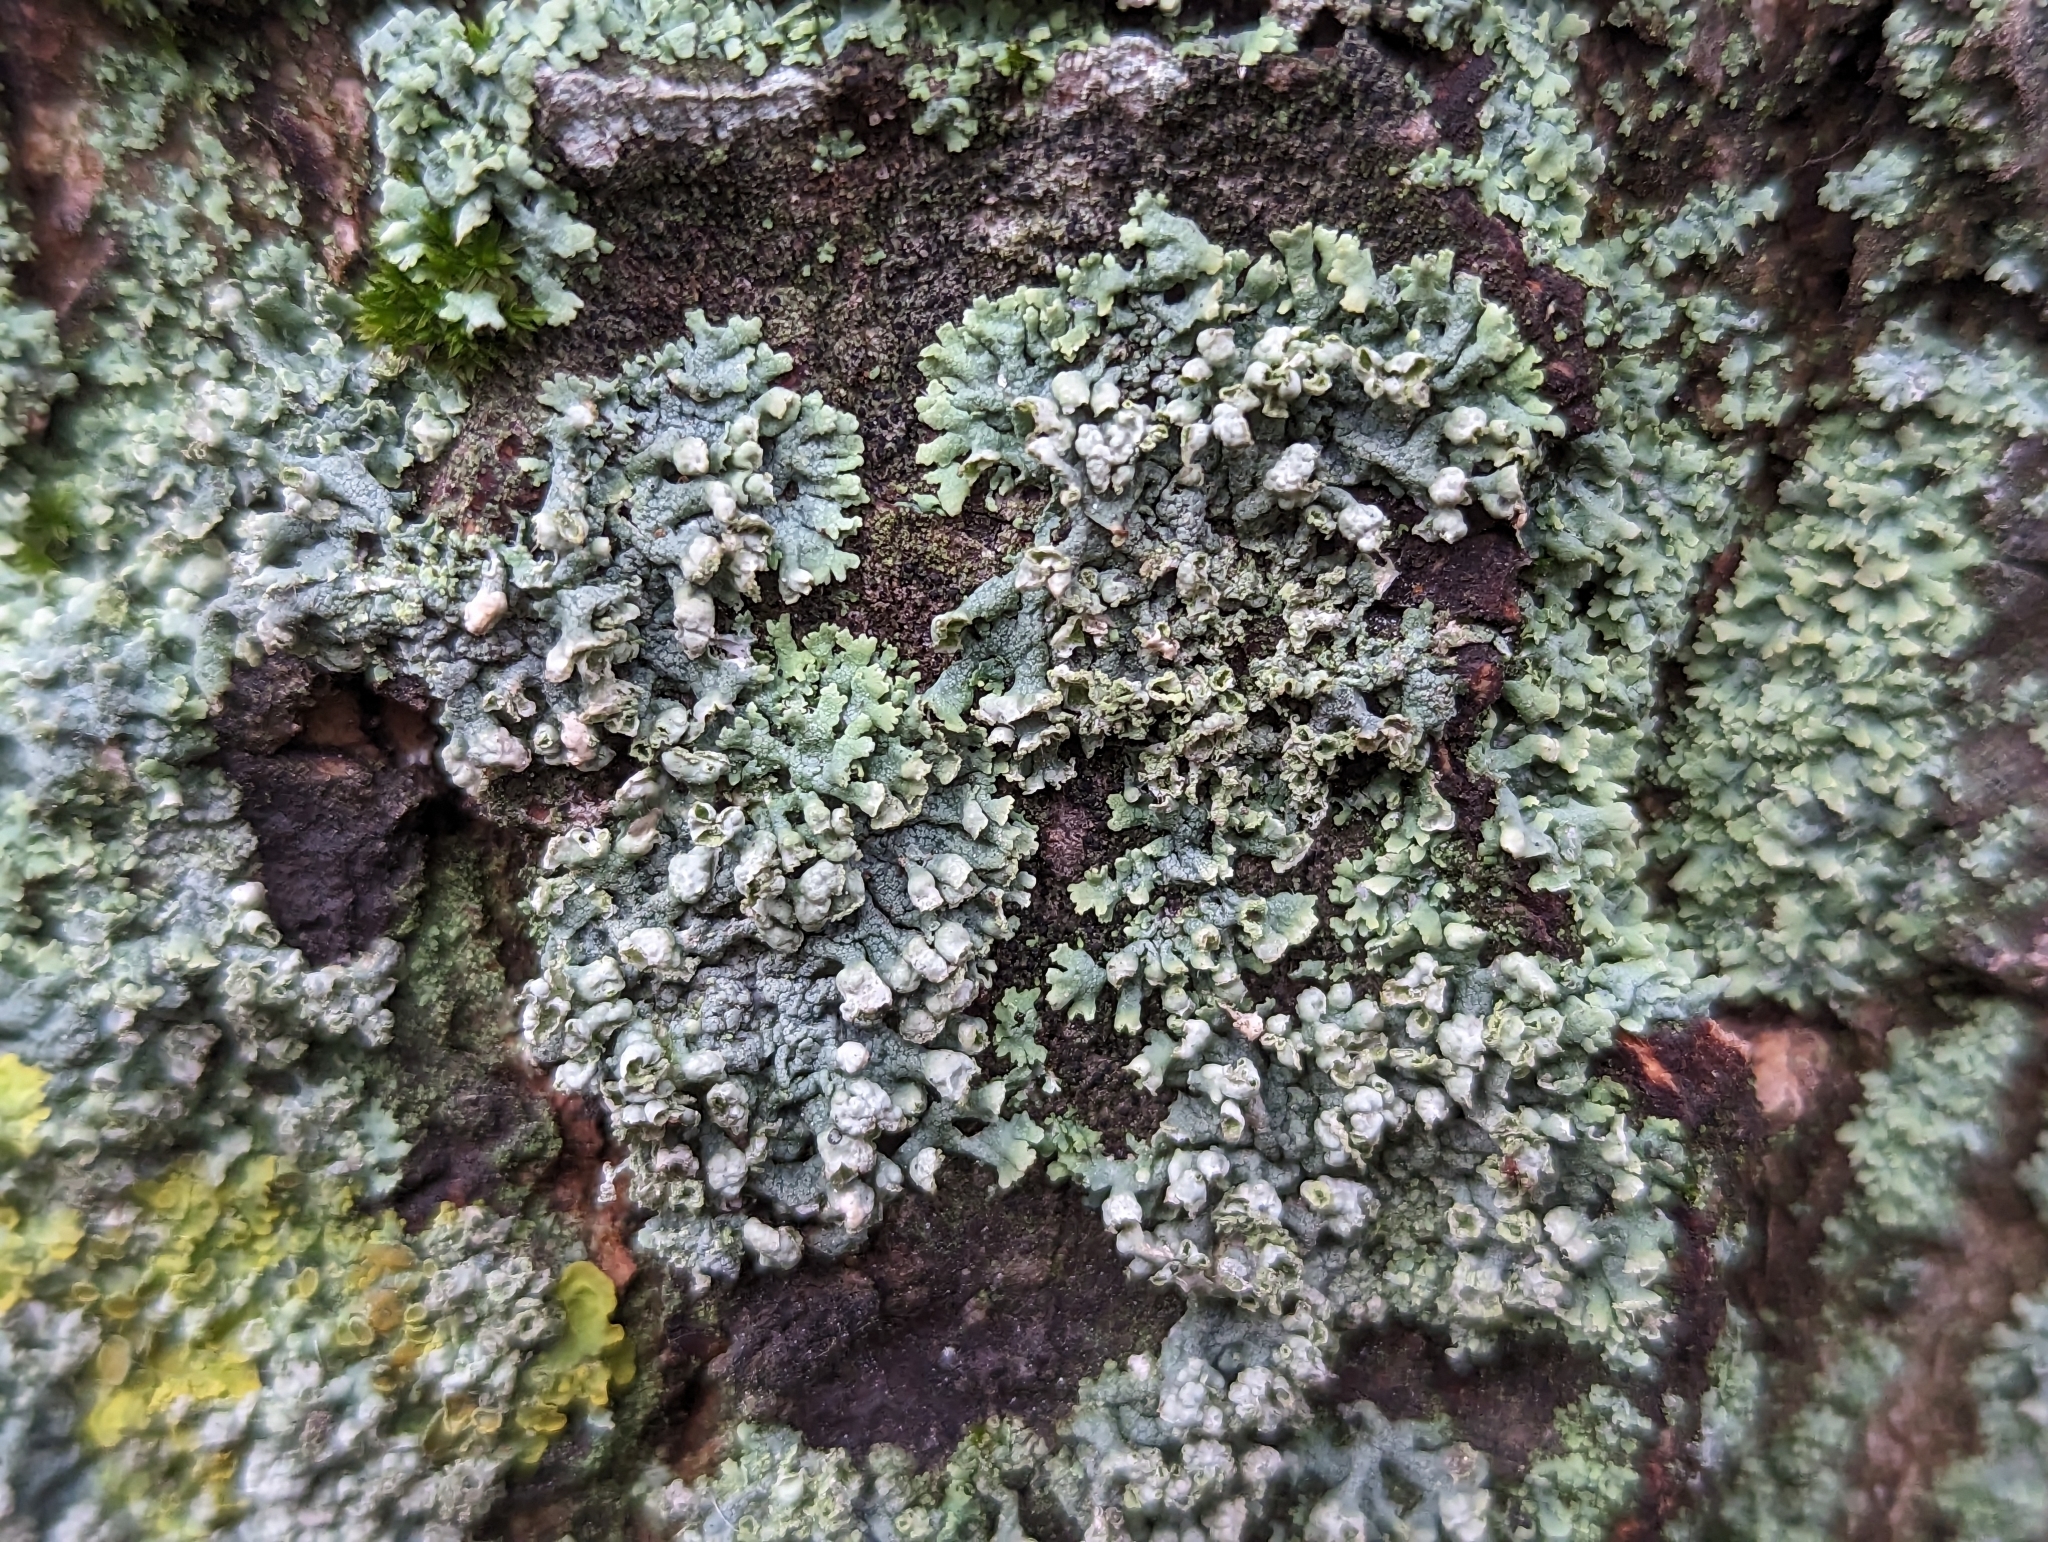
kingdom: Fungi
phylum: Ascomycota
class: Lecanoromycetes
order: Caliciales
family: Physciaceae
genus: Physcia
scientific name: Physcia adscendens
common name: Hooded rosette lichen
